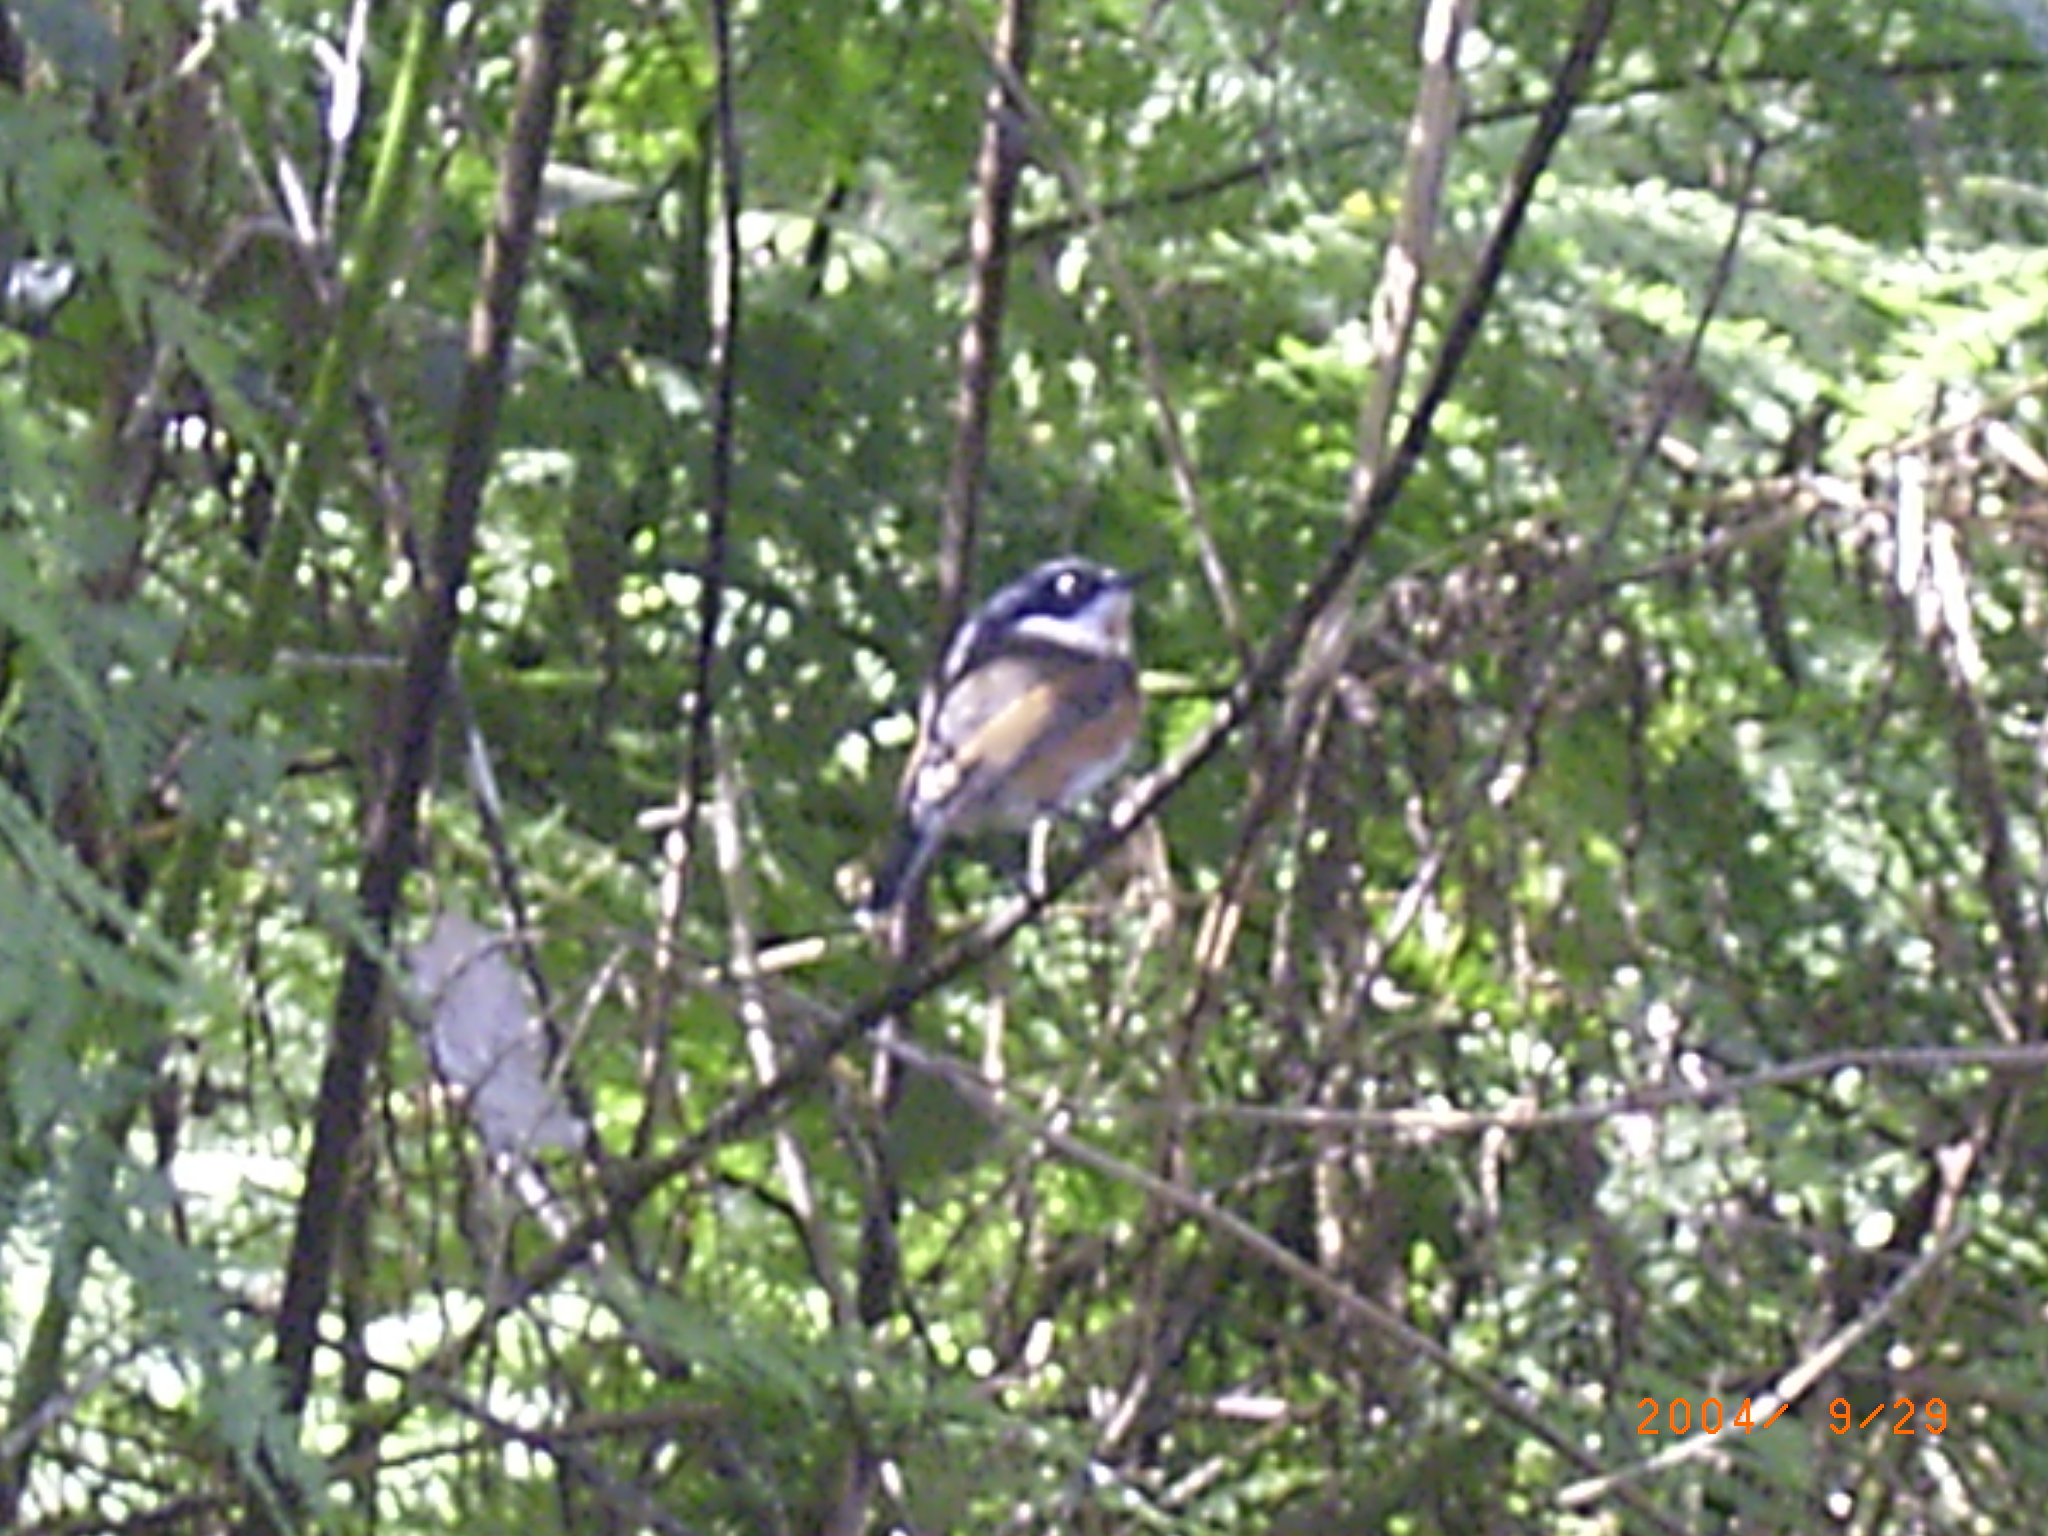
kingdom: Animalia
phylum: Chordata
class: Aves
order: Passeriformes
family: Platysteiridae
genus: Batis
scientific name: Batis capensis
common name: Cape batis
